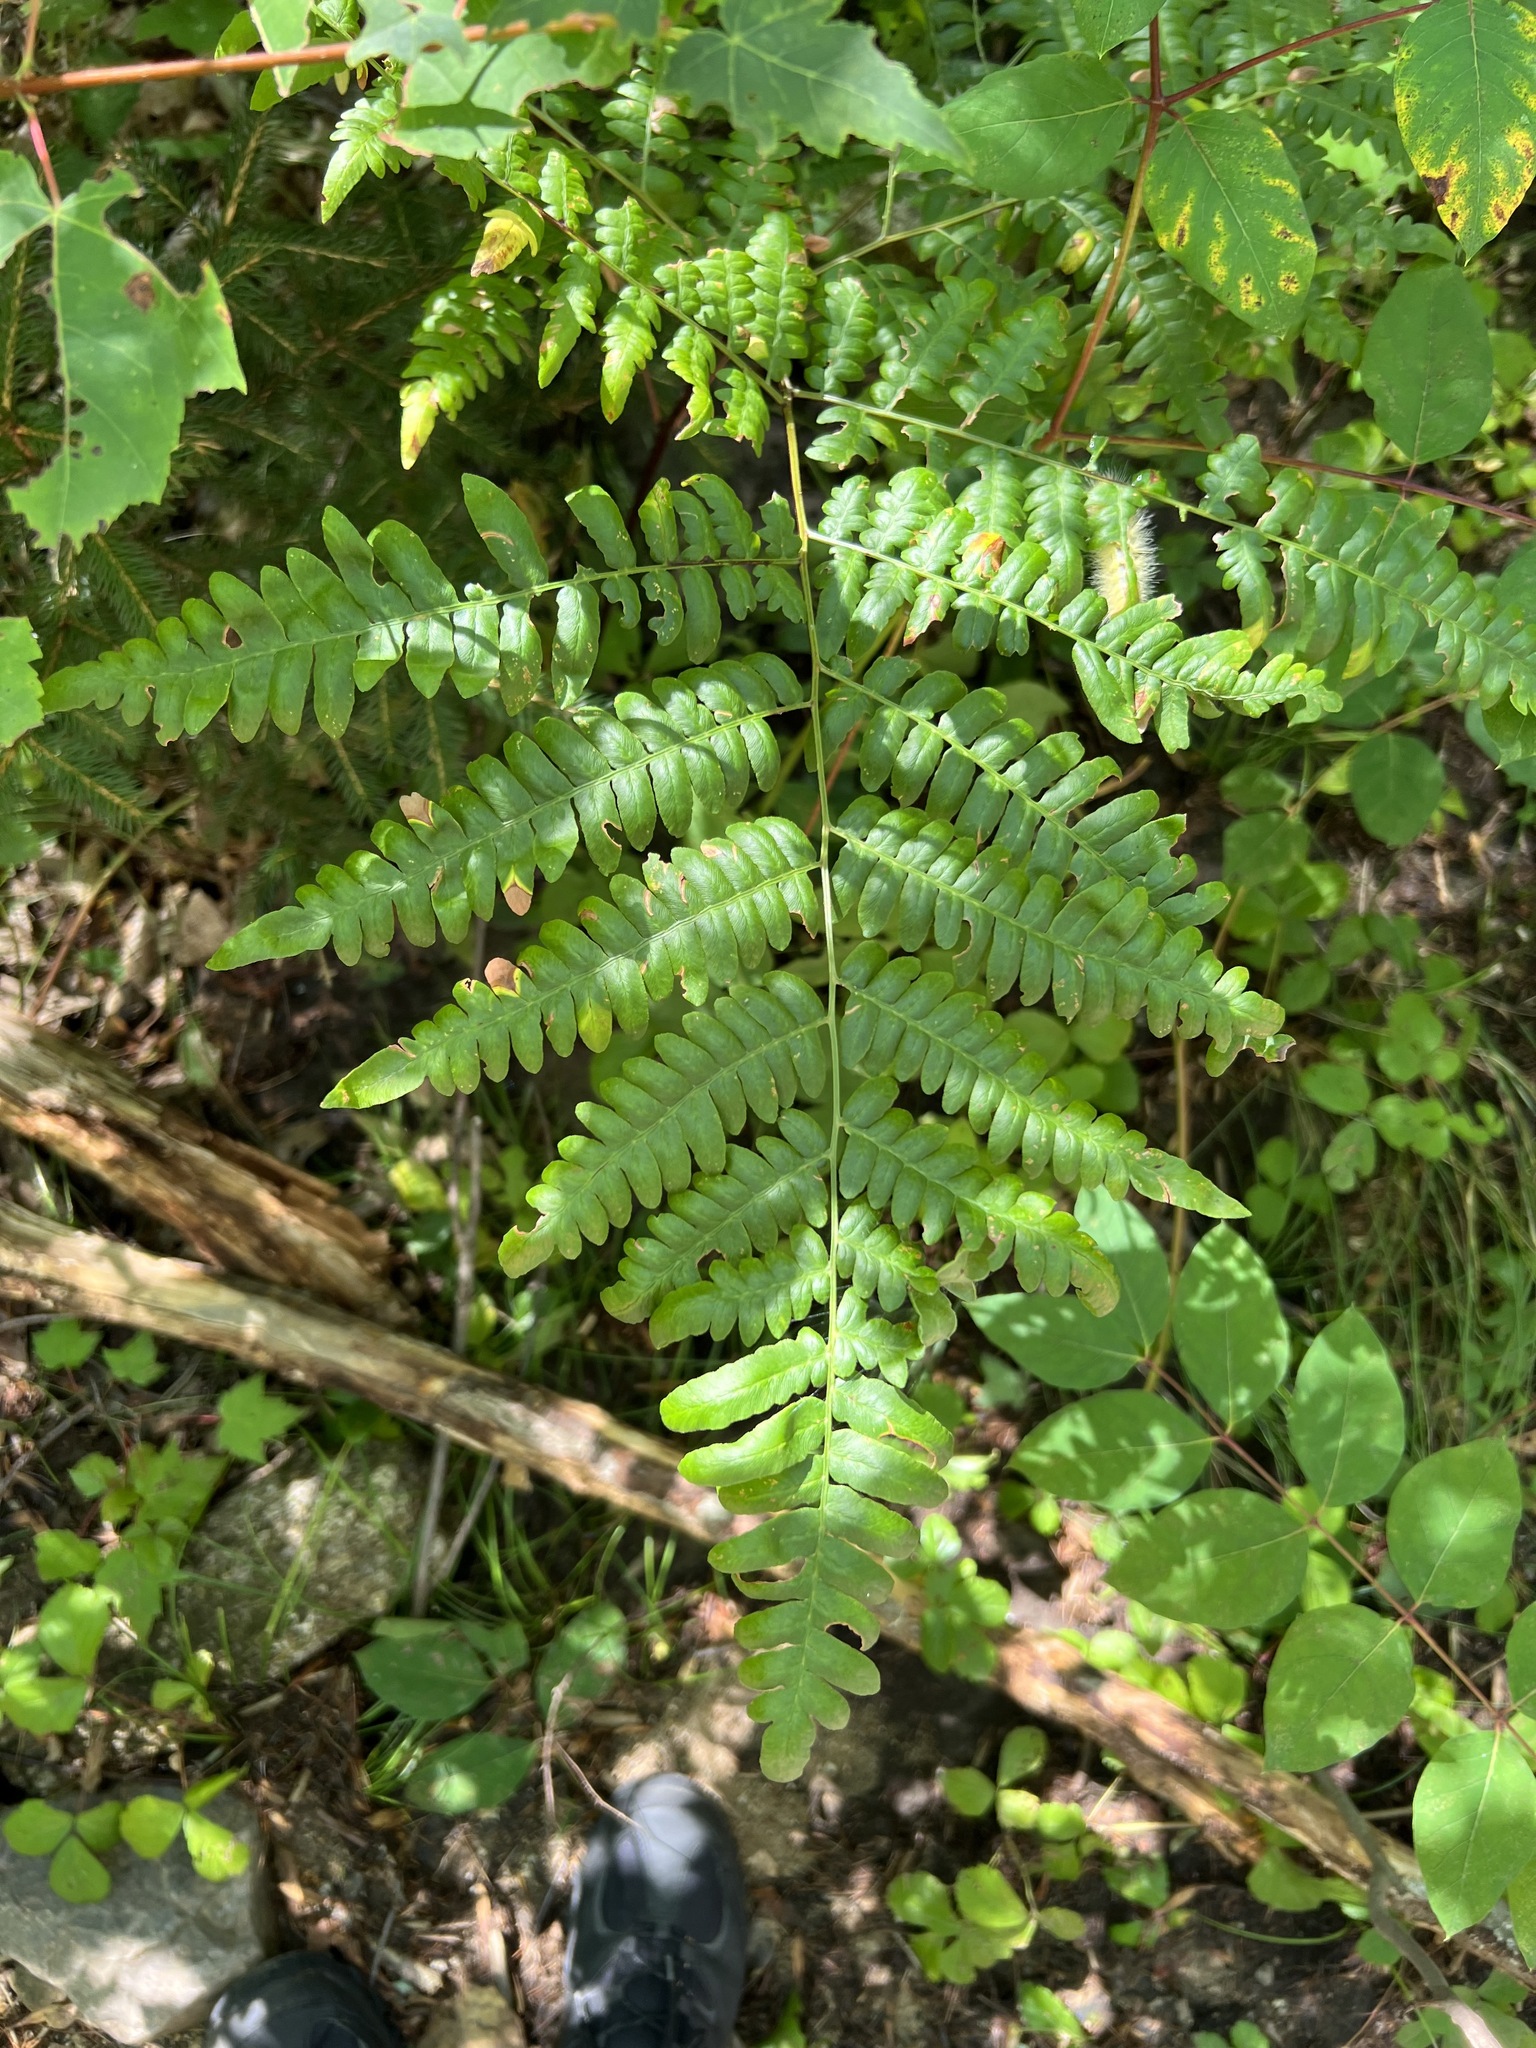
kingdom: Plantae
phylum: Tracheophyta
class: Polypodiopsida
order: Polypodiales
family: Dennstaedtiaceae
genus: Pteridium
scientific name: Pteridium aquilinum
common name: Bracken
